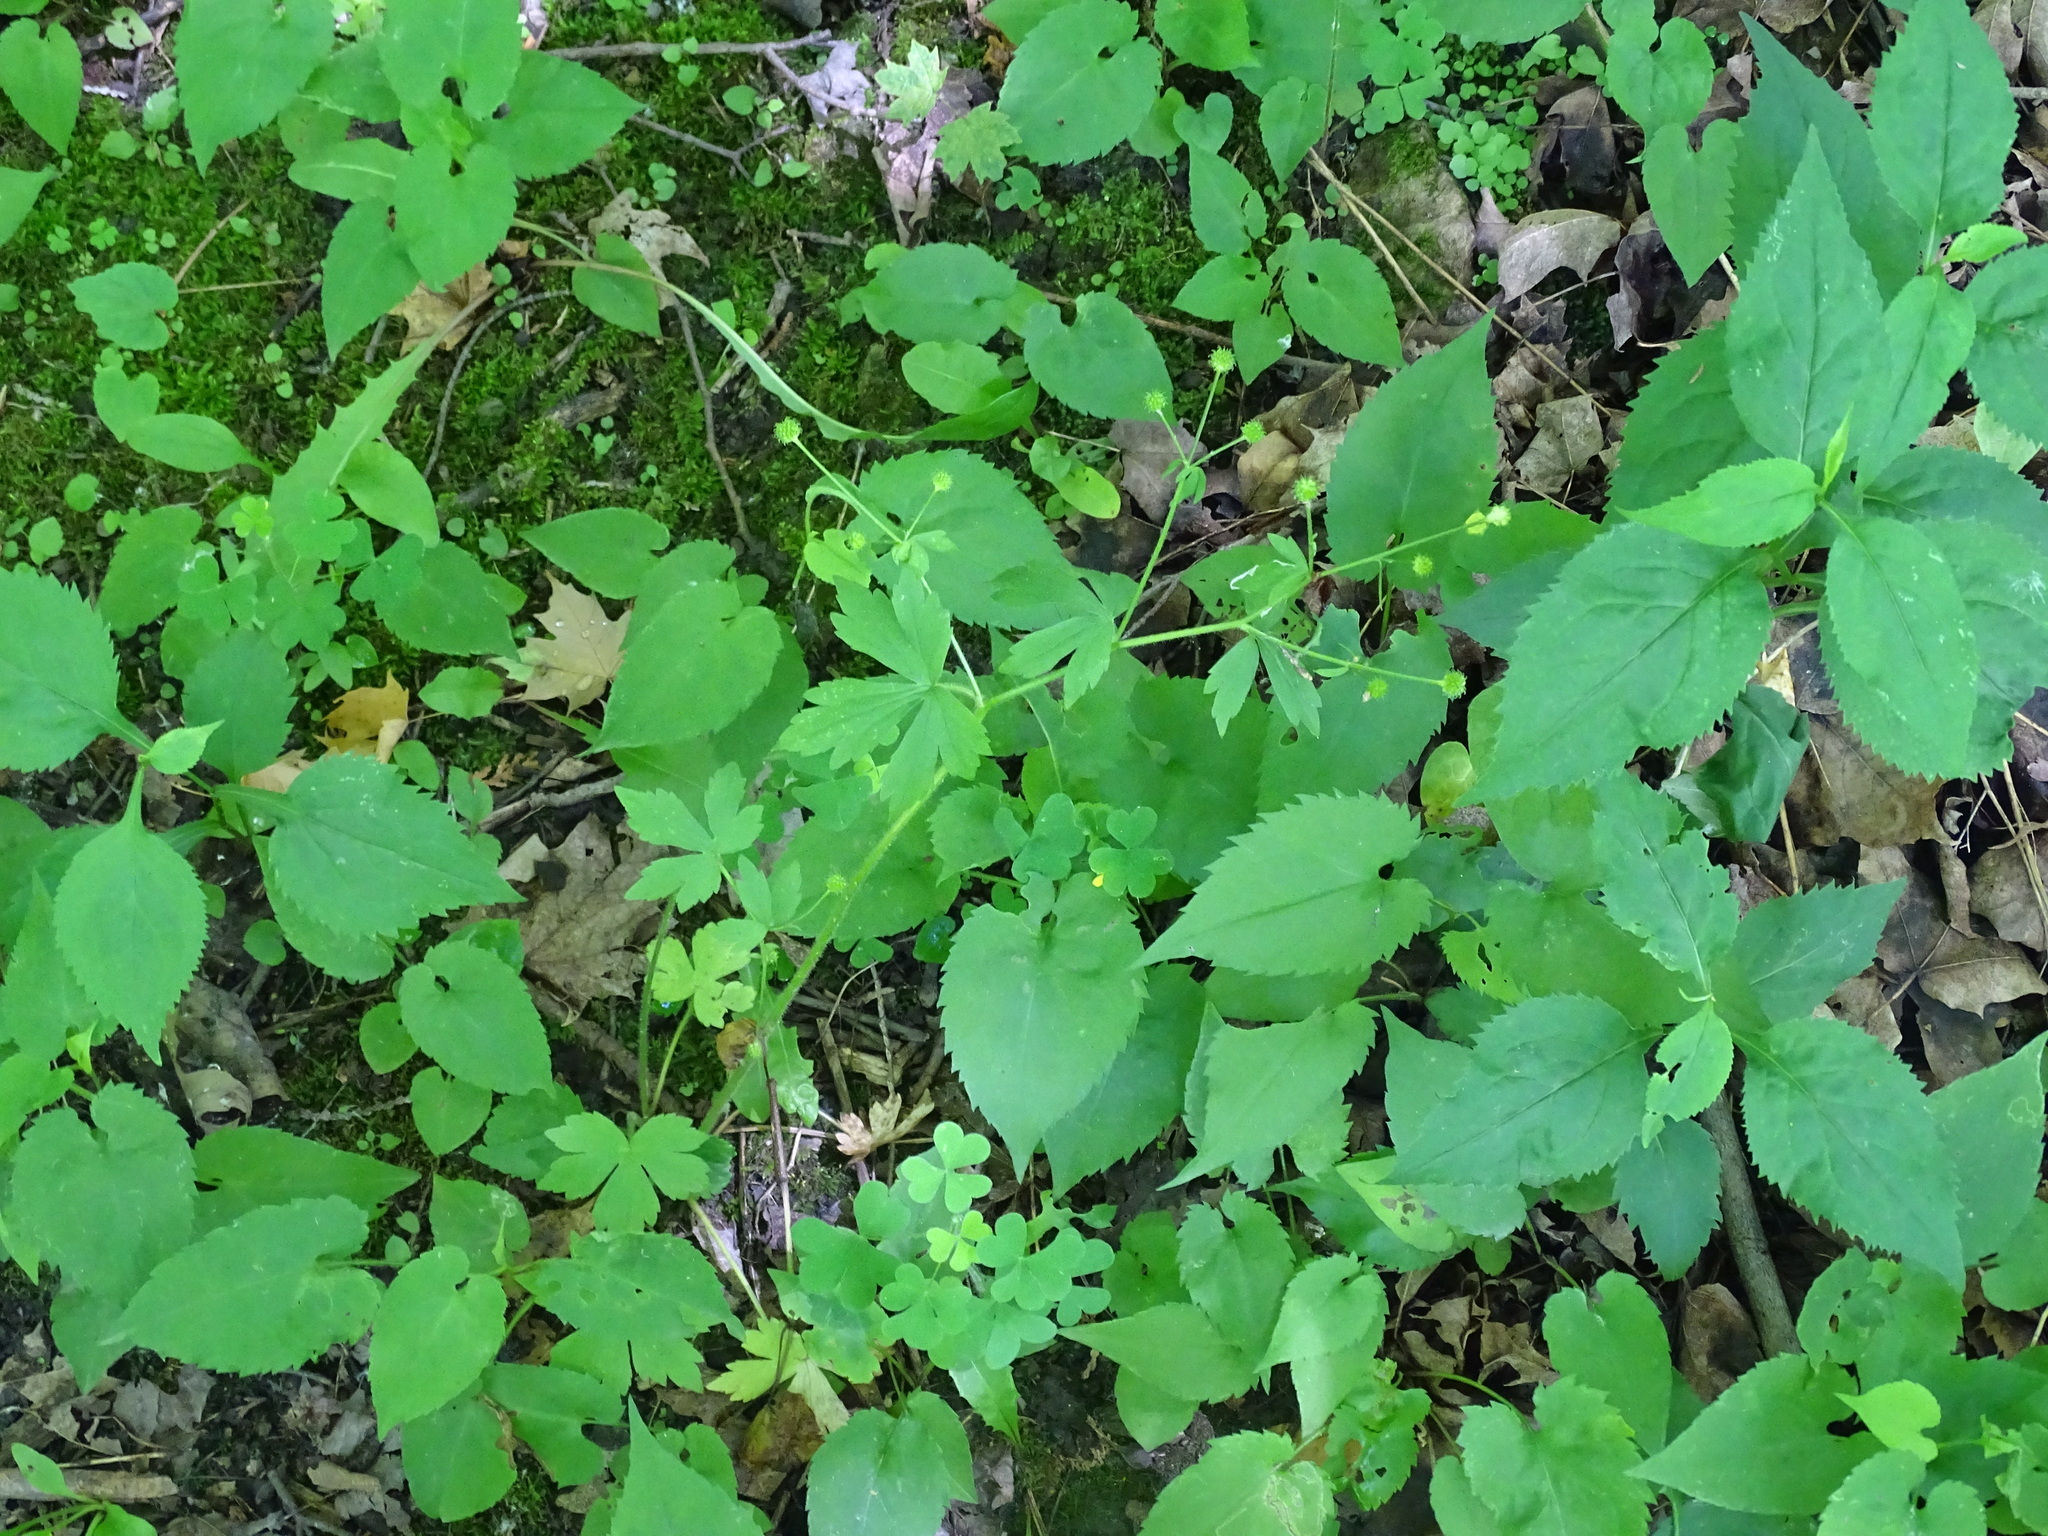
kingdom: Plantae
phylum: Tracheophyta
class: Magnoliopsida
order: Ranunculales
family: Ranunculaceae
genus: Ranunculus
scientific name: Ranunculus recurvatus
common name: Blisterwort
